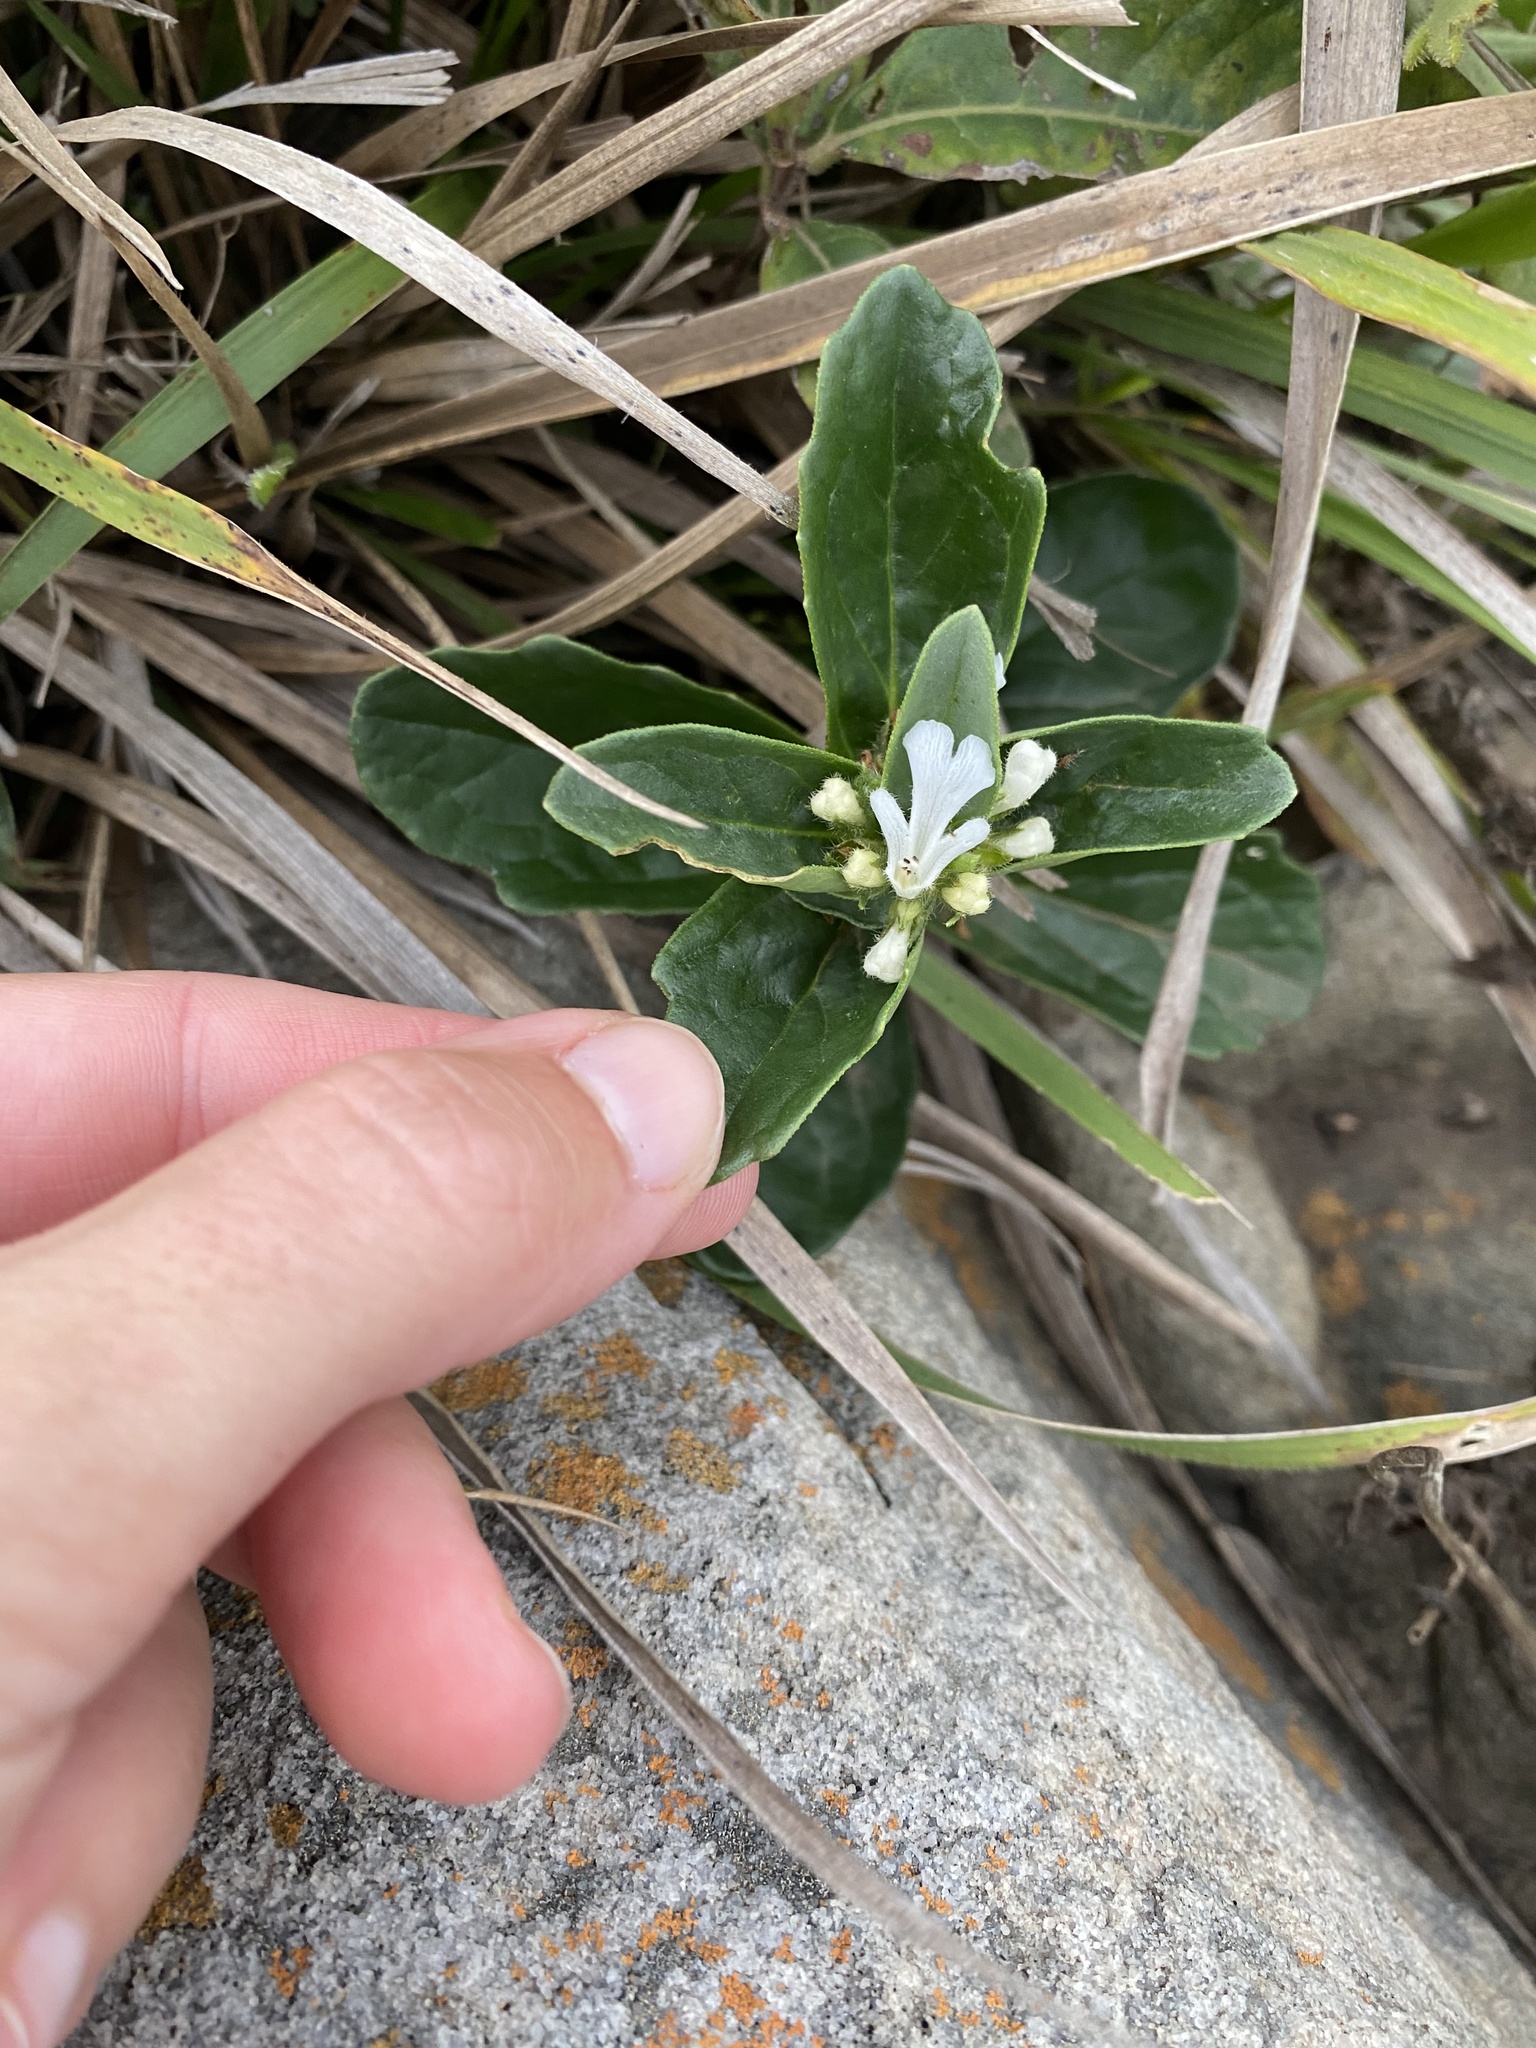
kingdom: Plantae
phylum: Tracheophyta
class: Magnoliopsida
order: Lamiales
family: Lamiaceae
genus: Ajuga
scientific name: Ajuga ophrydis
